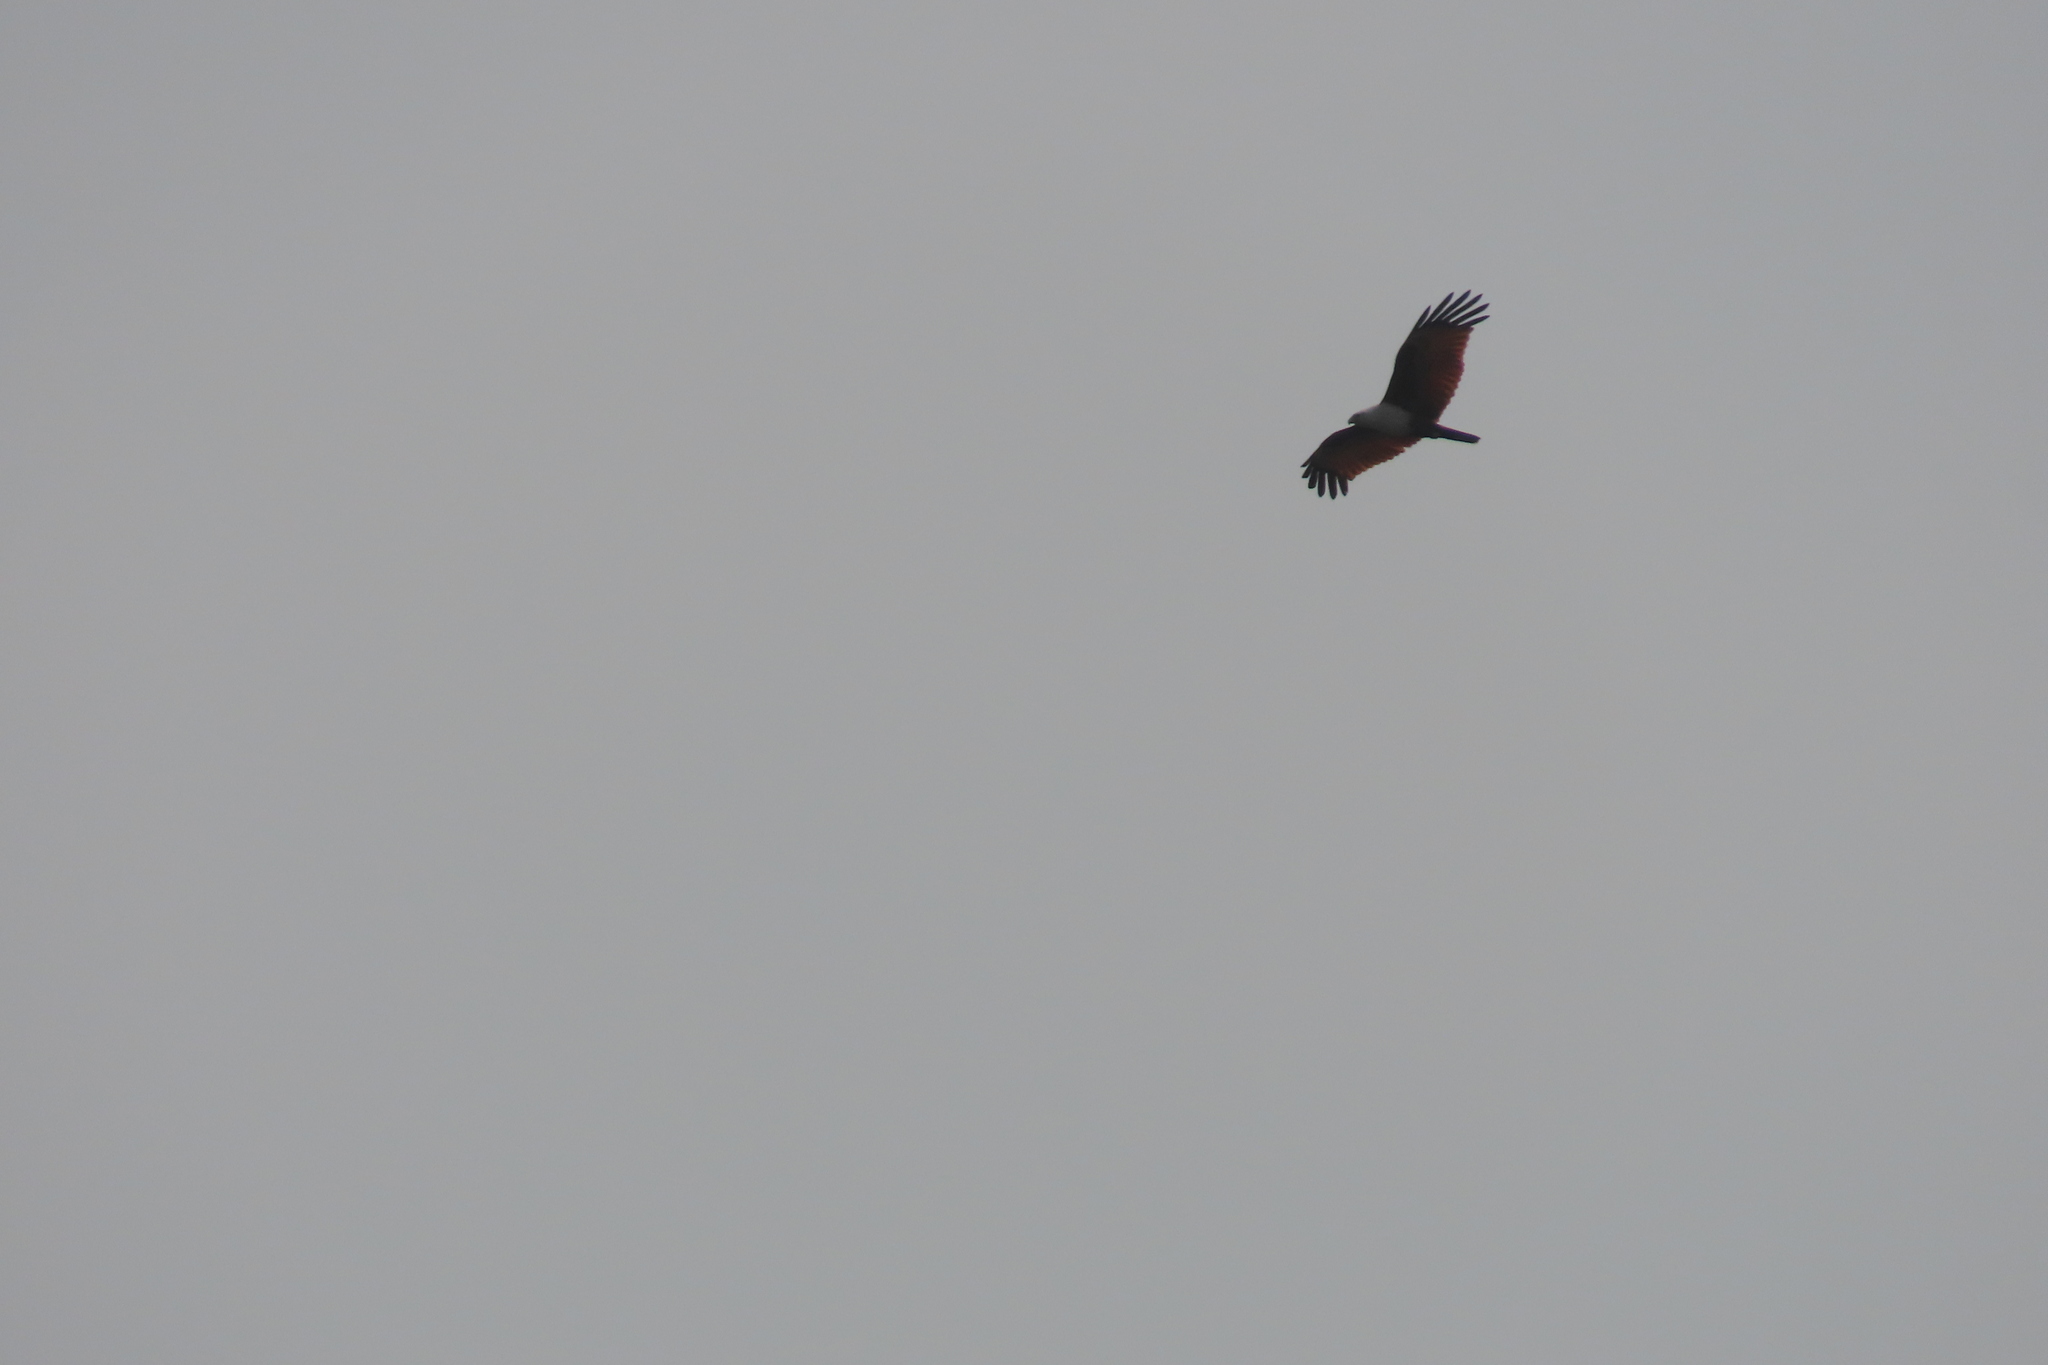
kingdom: Animalia
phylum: Chordata
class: Aves
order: Accipitriformes
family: Accipitridae
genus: Haliastur
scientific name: Haliastur indus
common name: Brahminy kite
